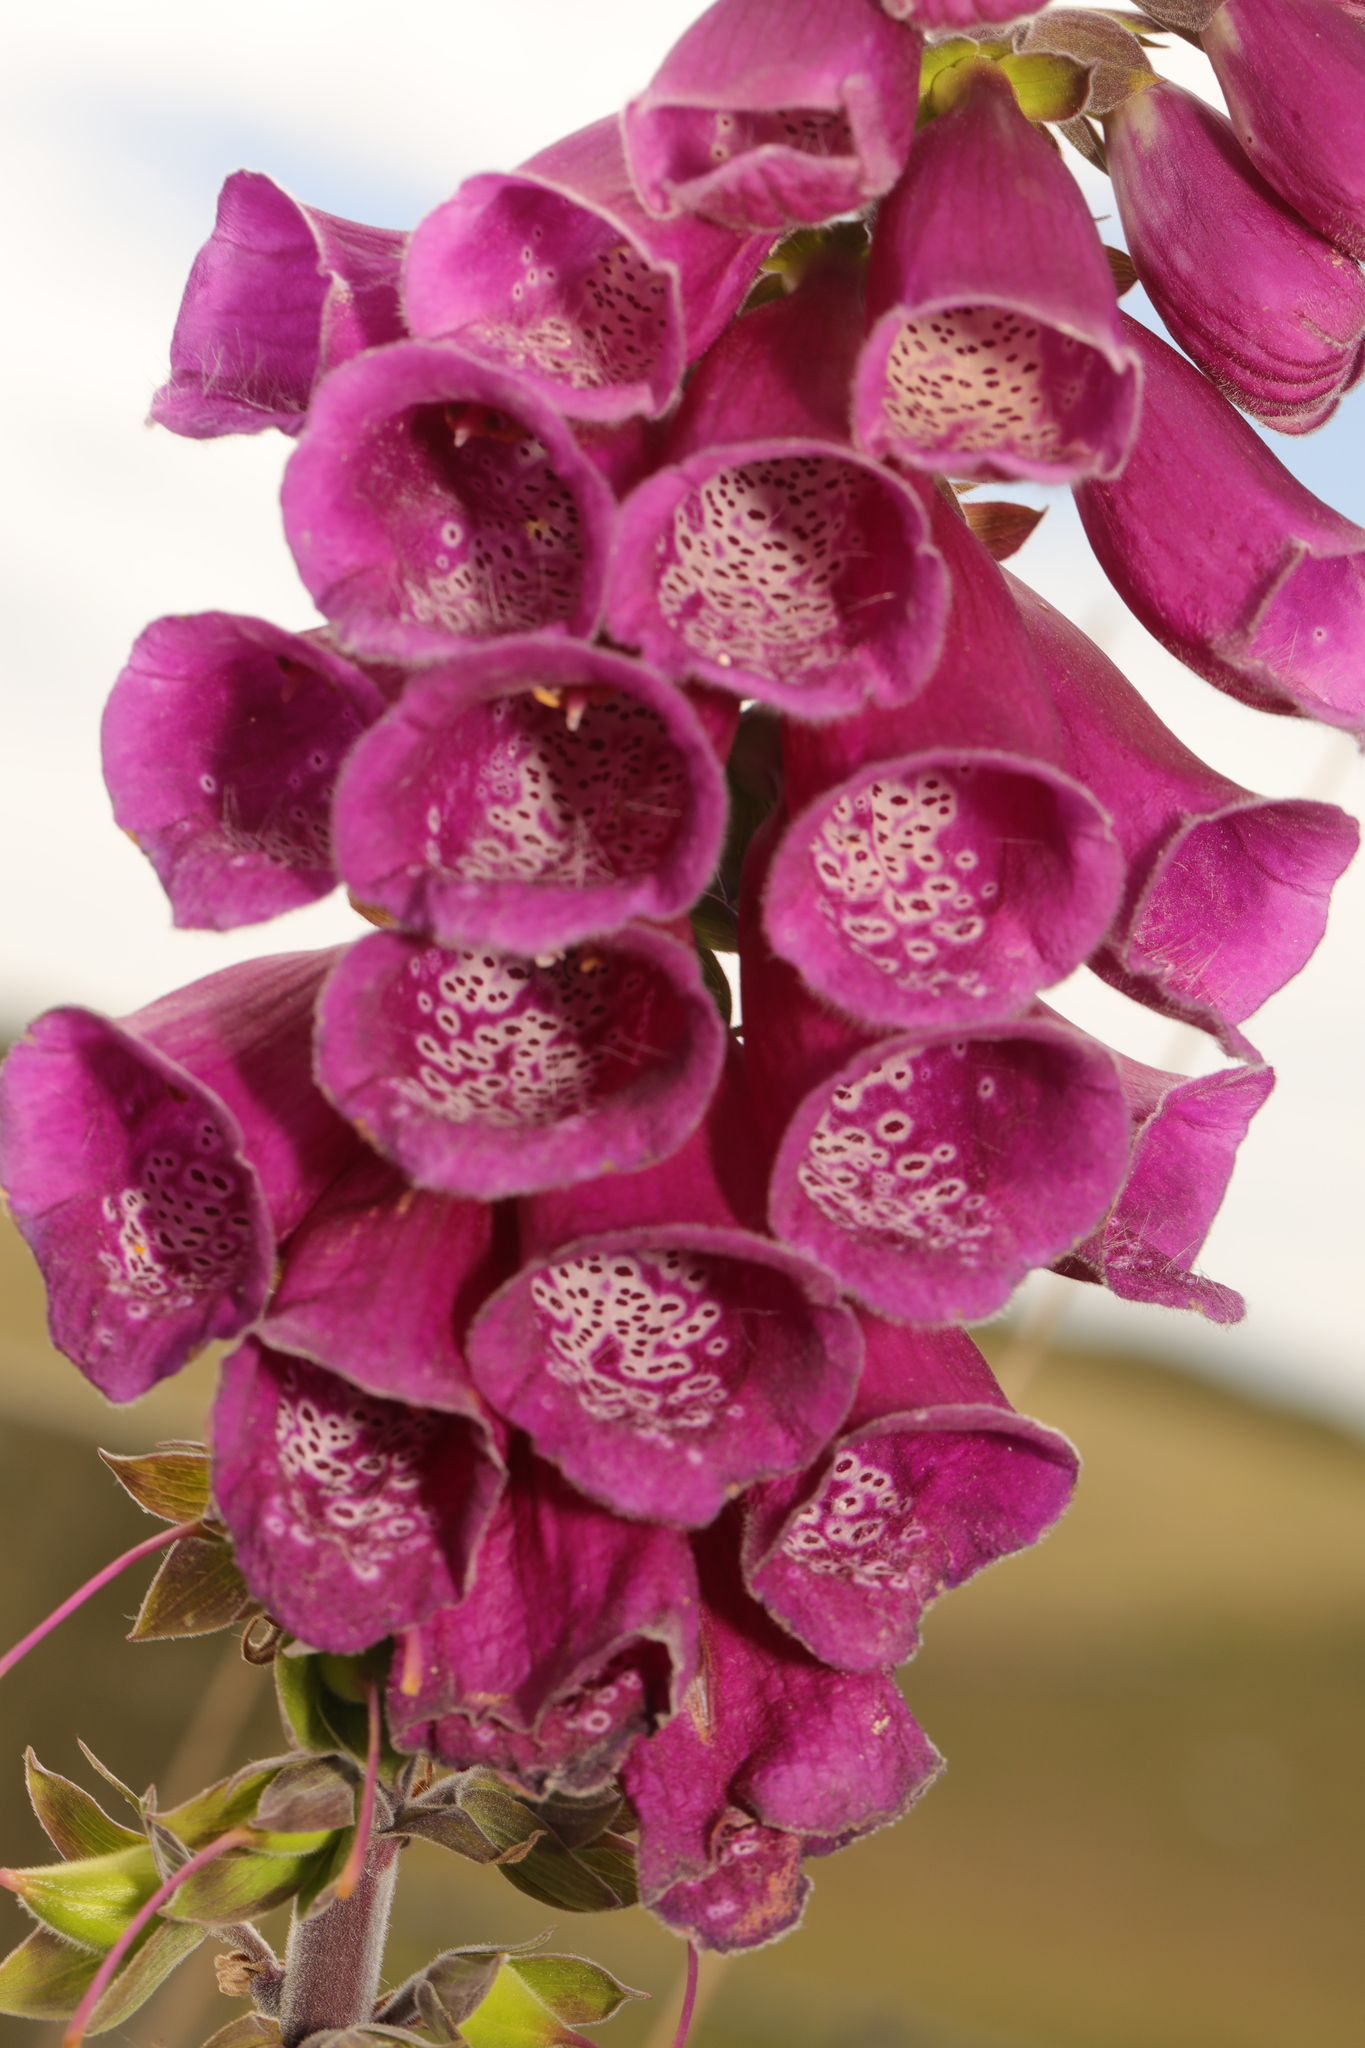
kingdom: Plantae
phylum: Tracheophyta
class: Magnoliopsida
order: Lamiales
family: Plantaginaceae
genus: Digitalis
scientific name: Digitalis purpurea
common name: Foxglove
